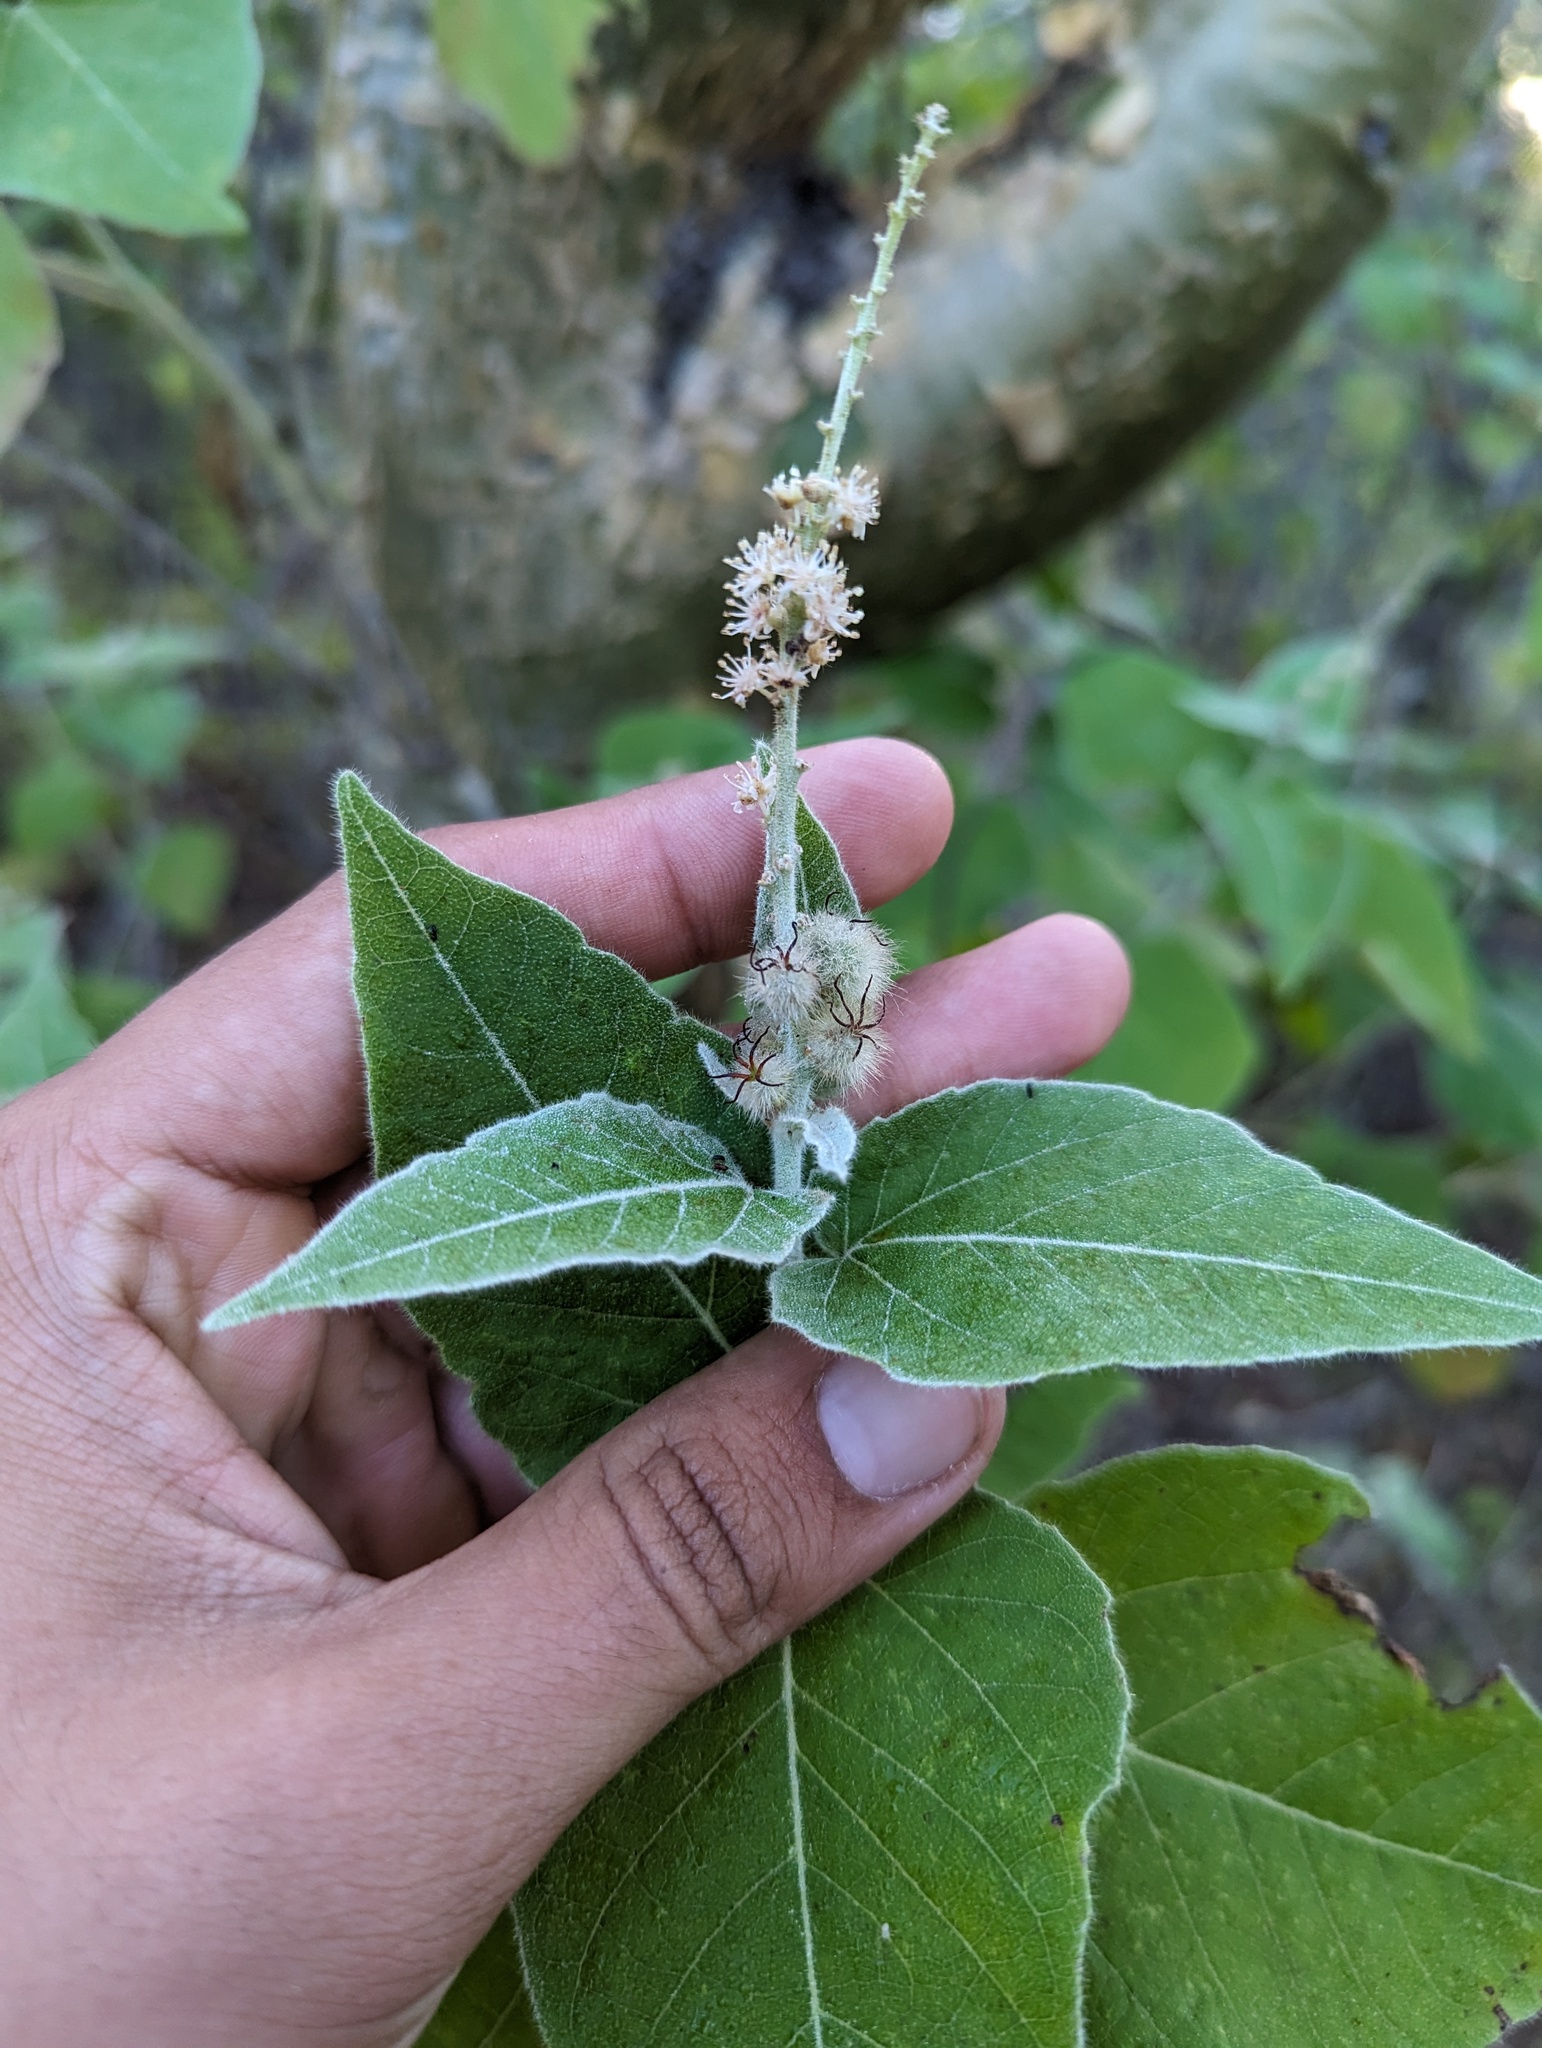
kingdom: Plantae
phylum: Tracheophyta
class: Magnoliopsida
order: Malpighiales
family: Euphorbiaceae
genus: Croton
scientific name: Croton magdalenae
